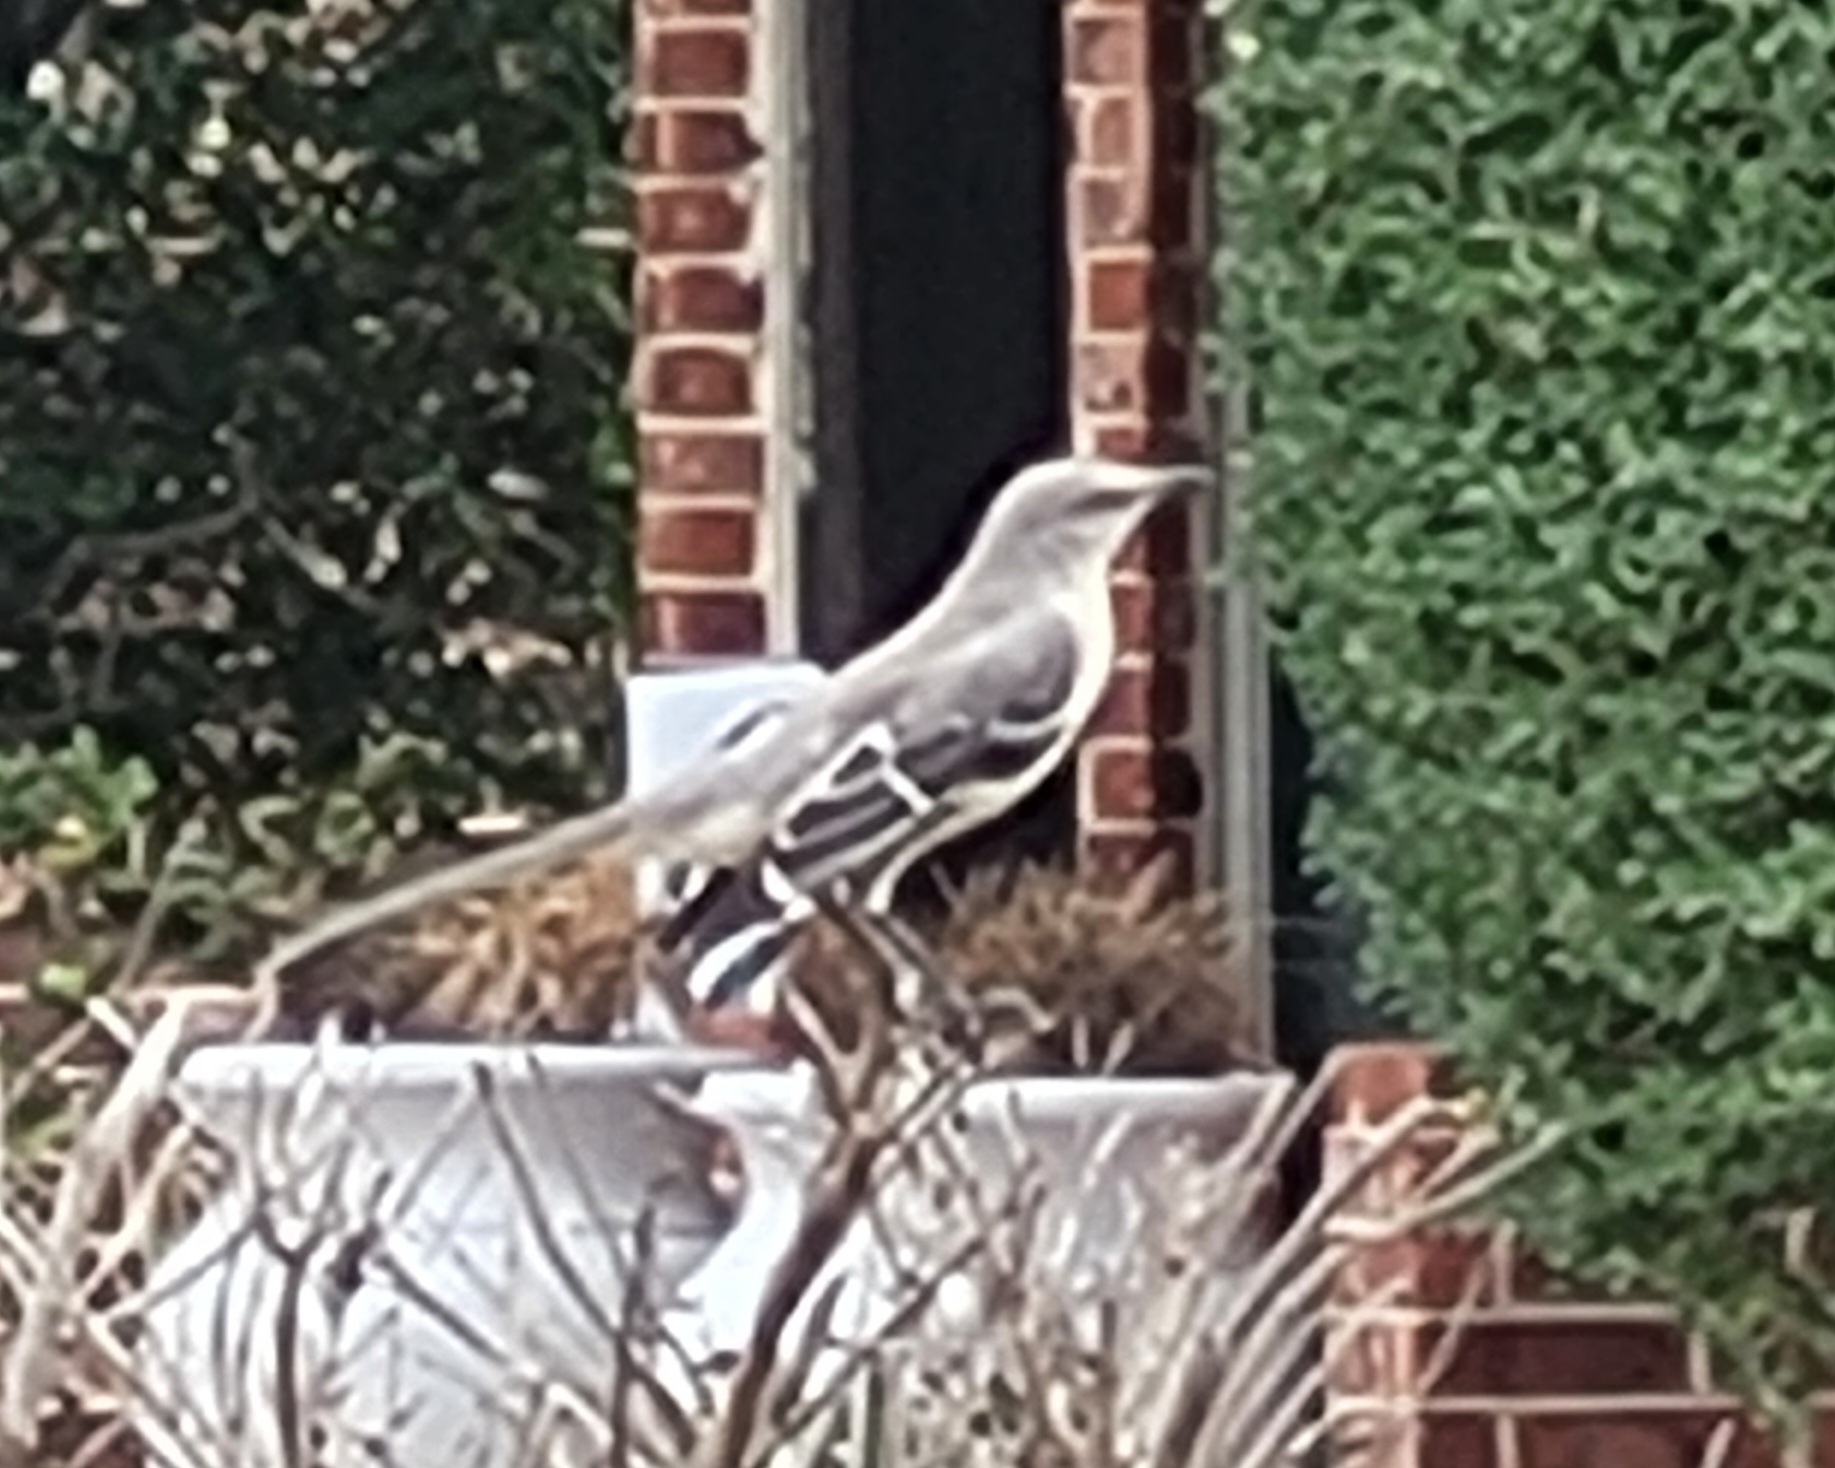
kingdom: Animalia
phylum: Chordata
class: Aves
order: Passeriformes
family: Mimidae
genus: Mimus
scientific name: Mimus polyglottos
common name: Northern mockingbird
